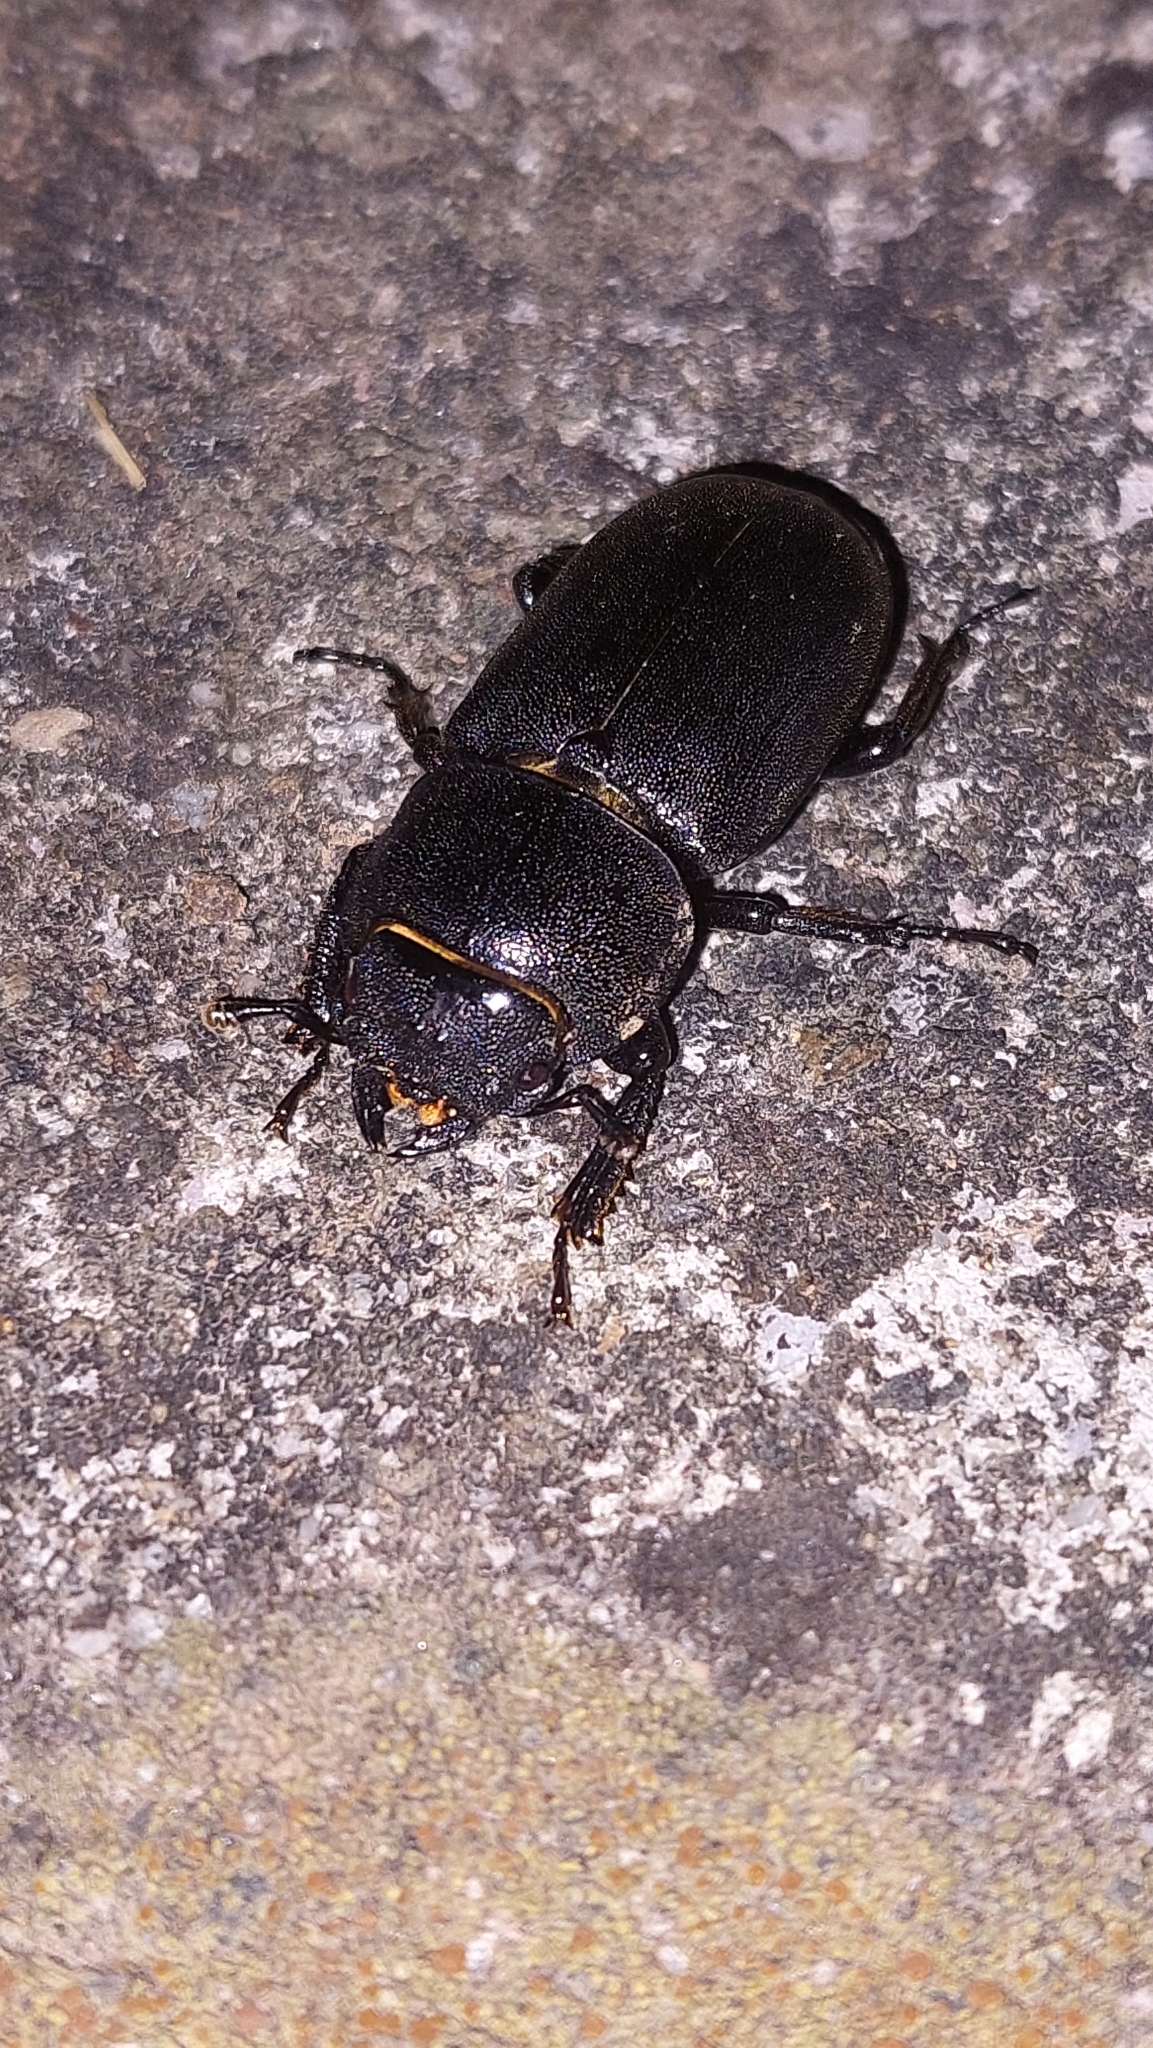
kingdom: Animalia
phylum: Arthropoda
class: Insecta
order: Coleoptera
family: Lucanidae
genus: Dorcus
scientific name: Dorcus parallelipipedus
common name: Lesser stag beetle
